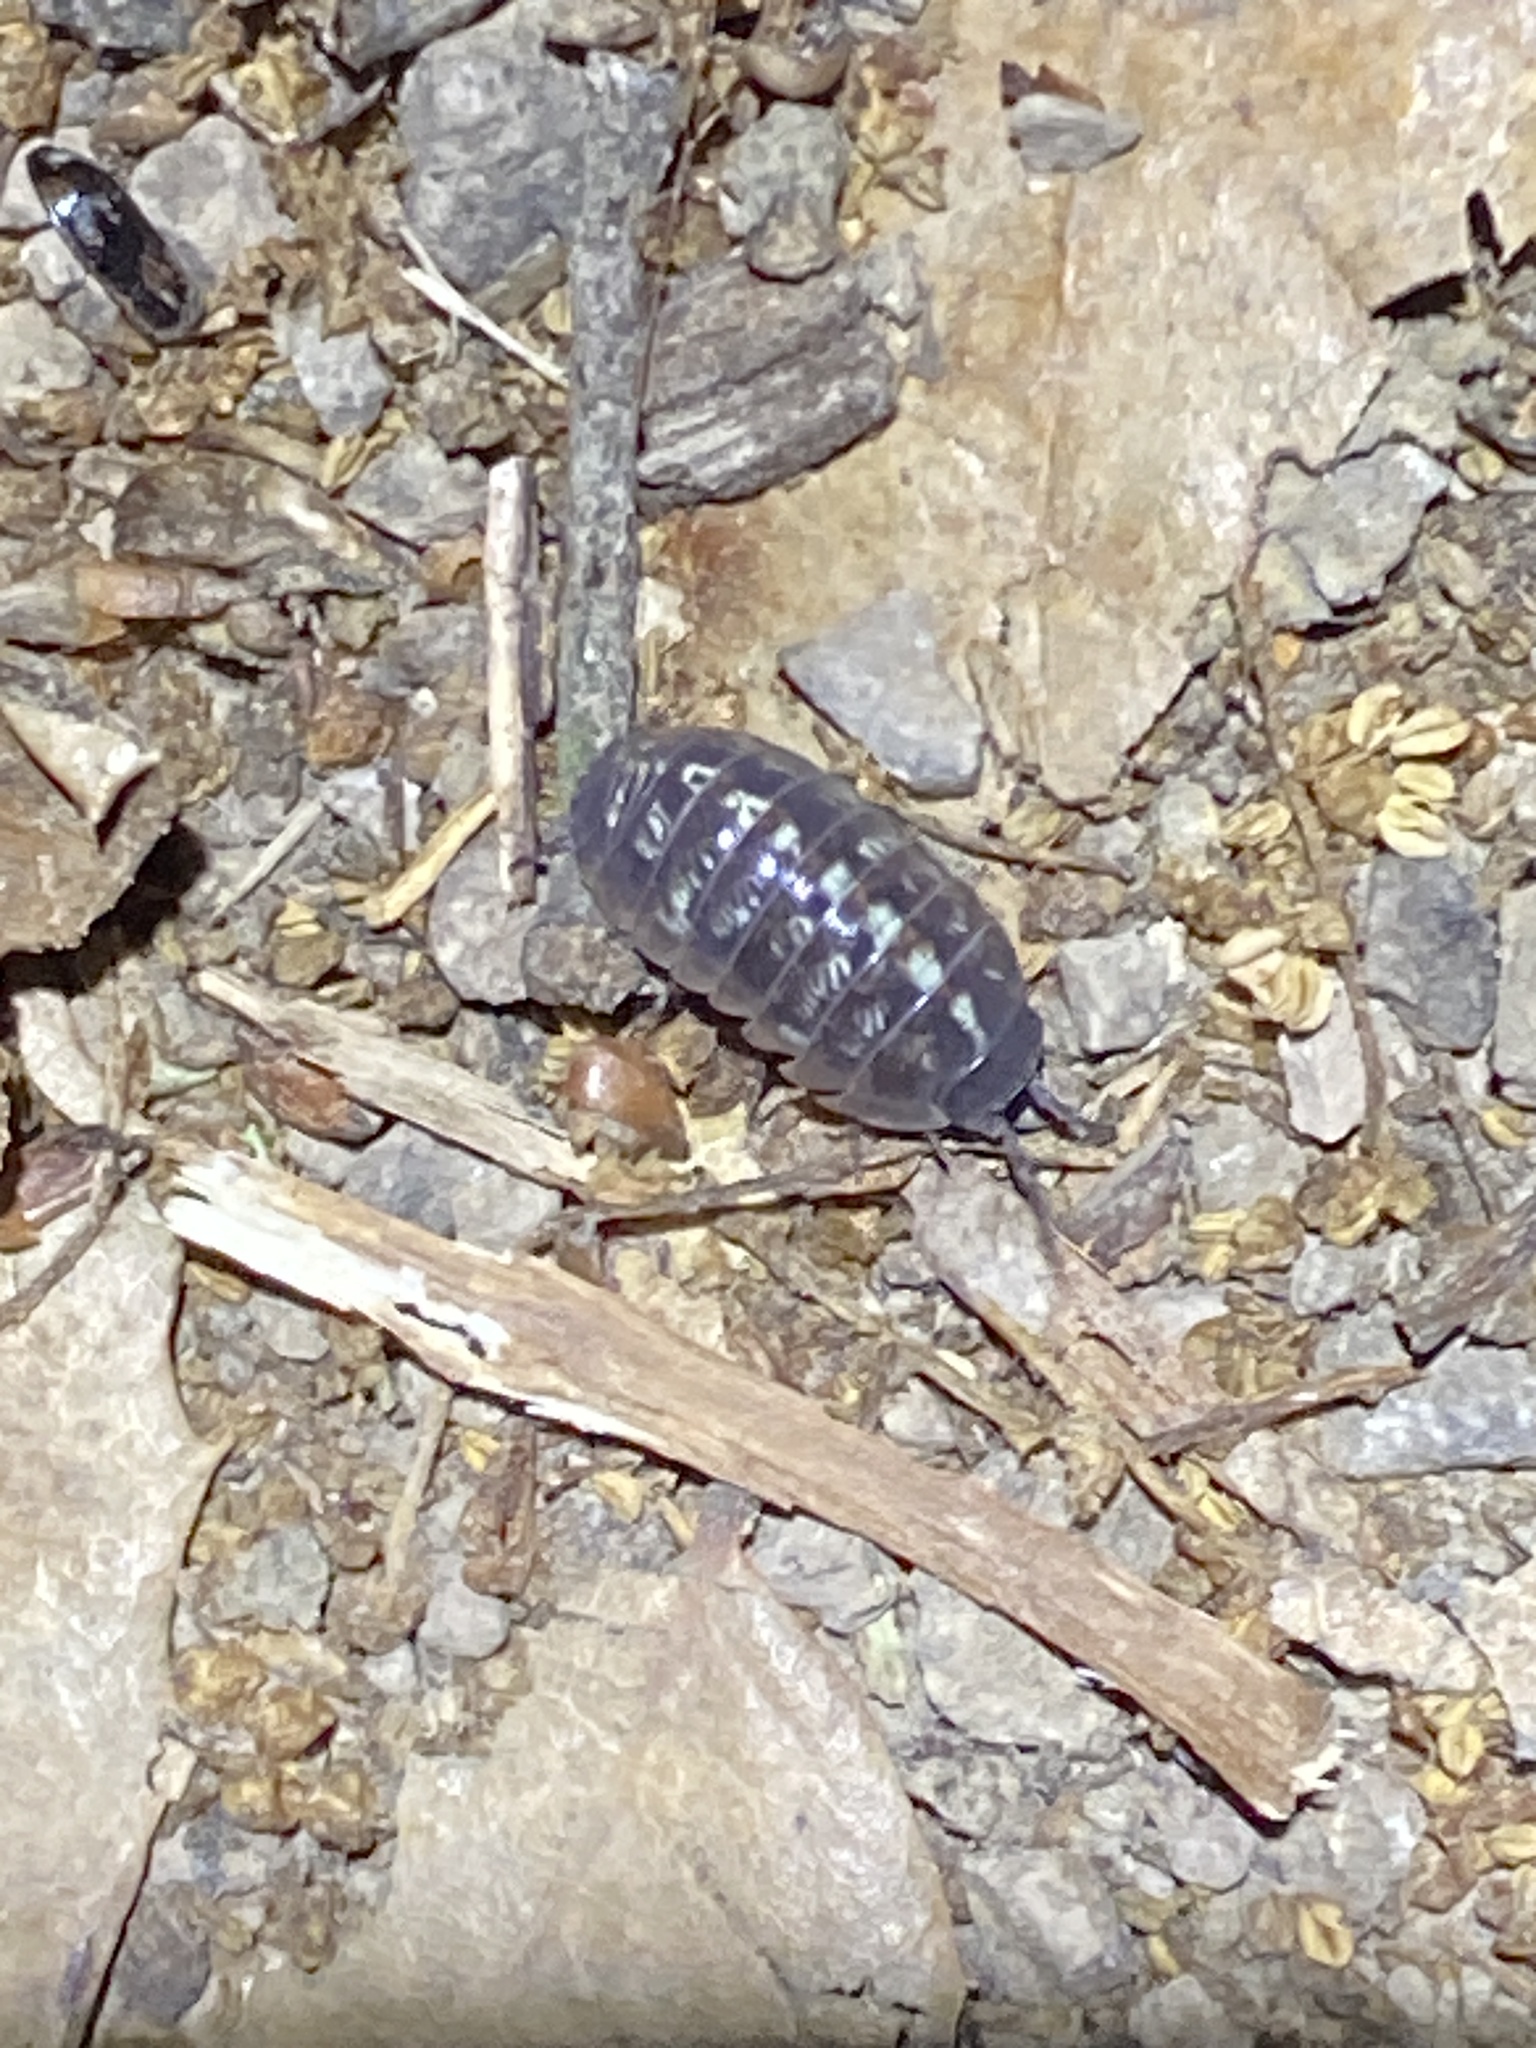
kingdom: Animalia
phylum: Arthropoda
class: Malacostraca
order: Isopoda
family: Armadillidiidae
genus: Armadillidium
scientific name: Armadillidium vulgare
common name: Common pill woodlouse
